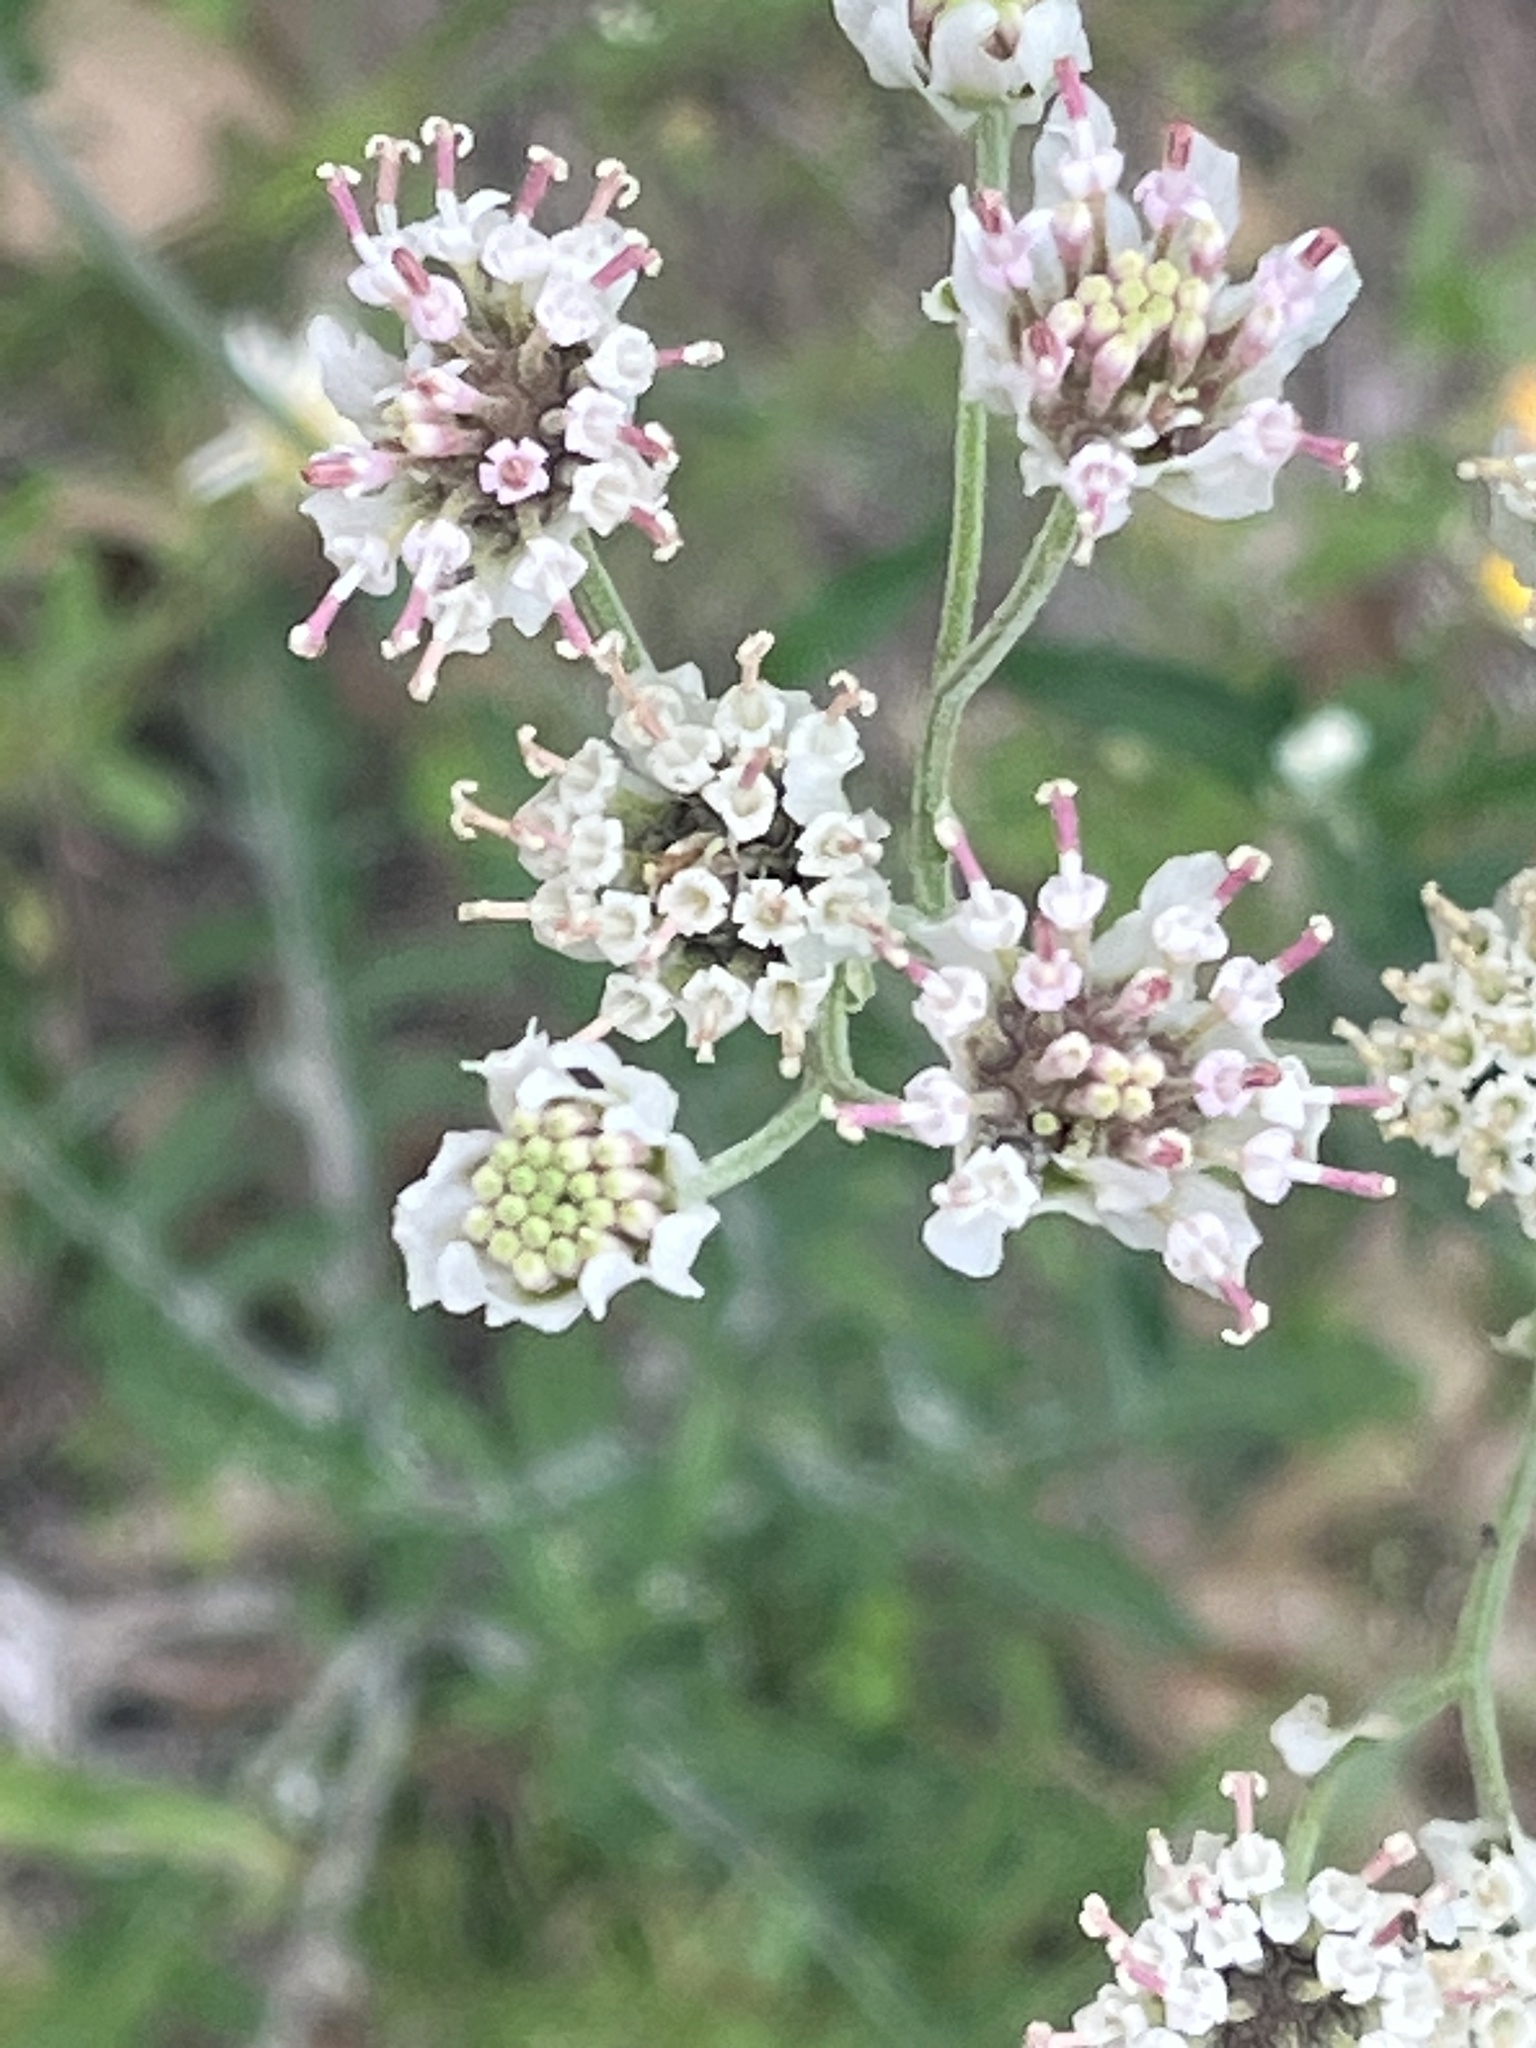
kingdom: Plantae
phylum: Tracheophyta
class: Magnoliopsida
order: Asterales
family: Asteraceae
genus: Hymenopappus
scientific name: Hymenopappus artemisiifolius
